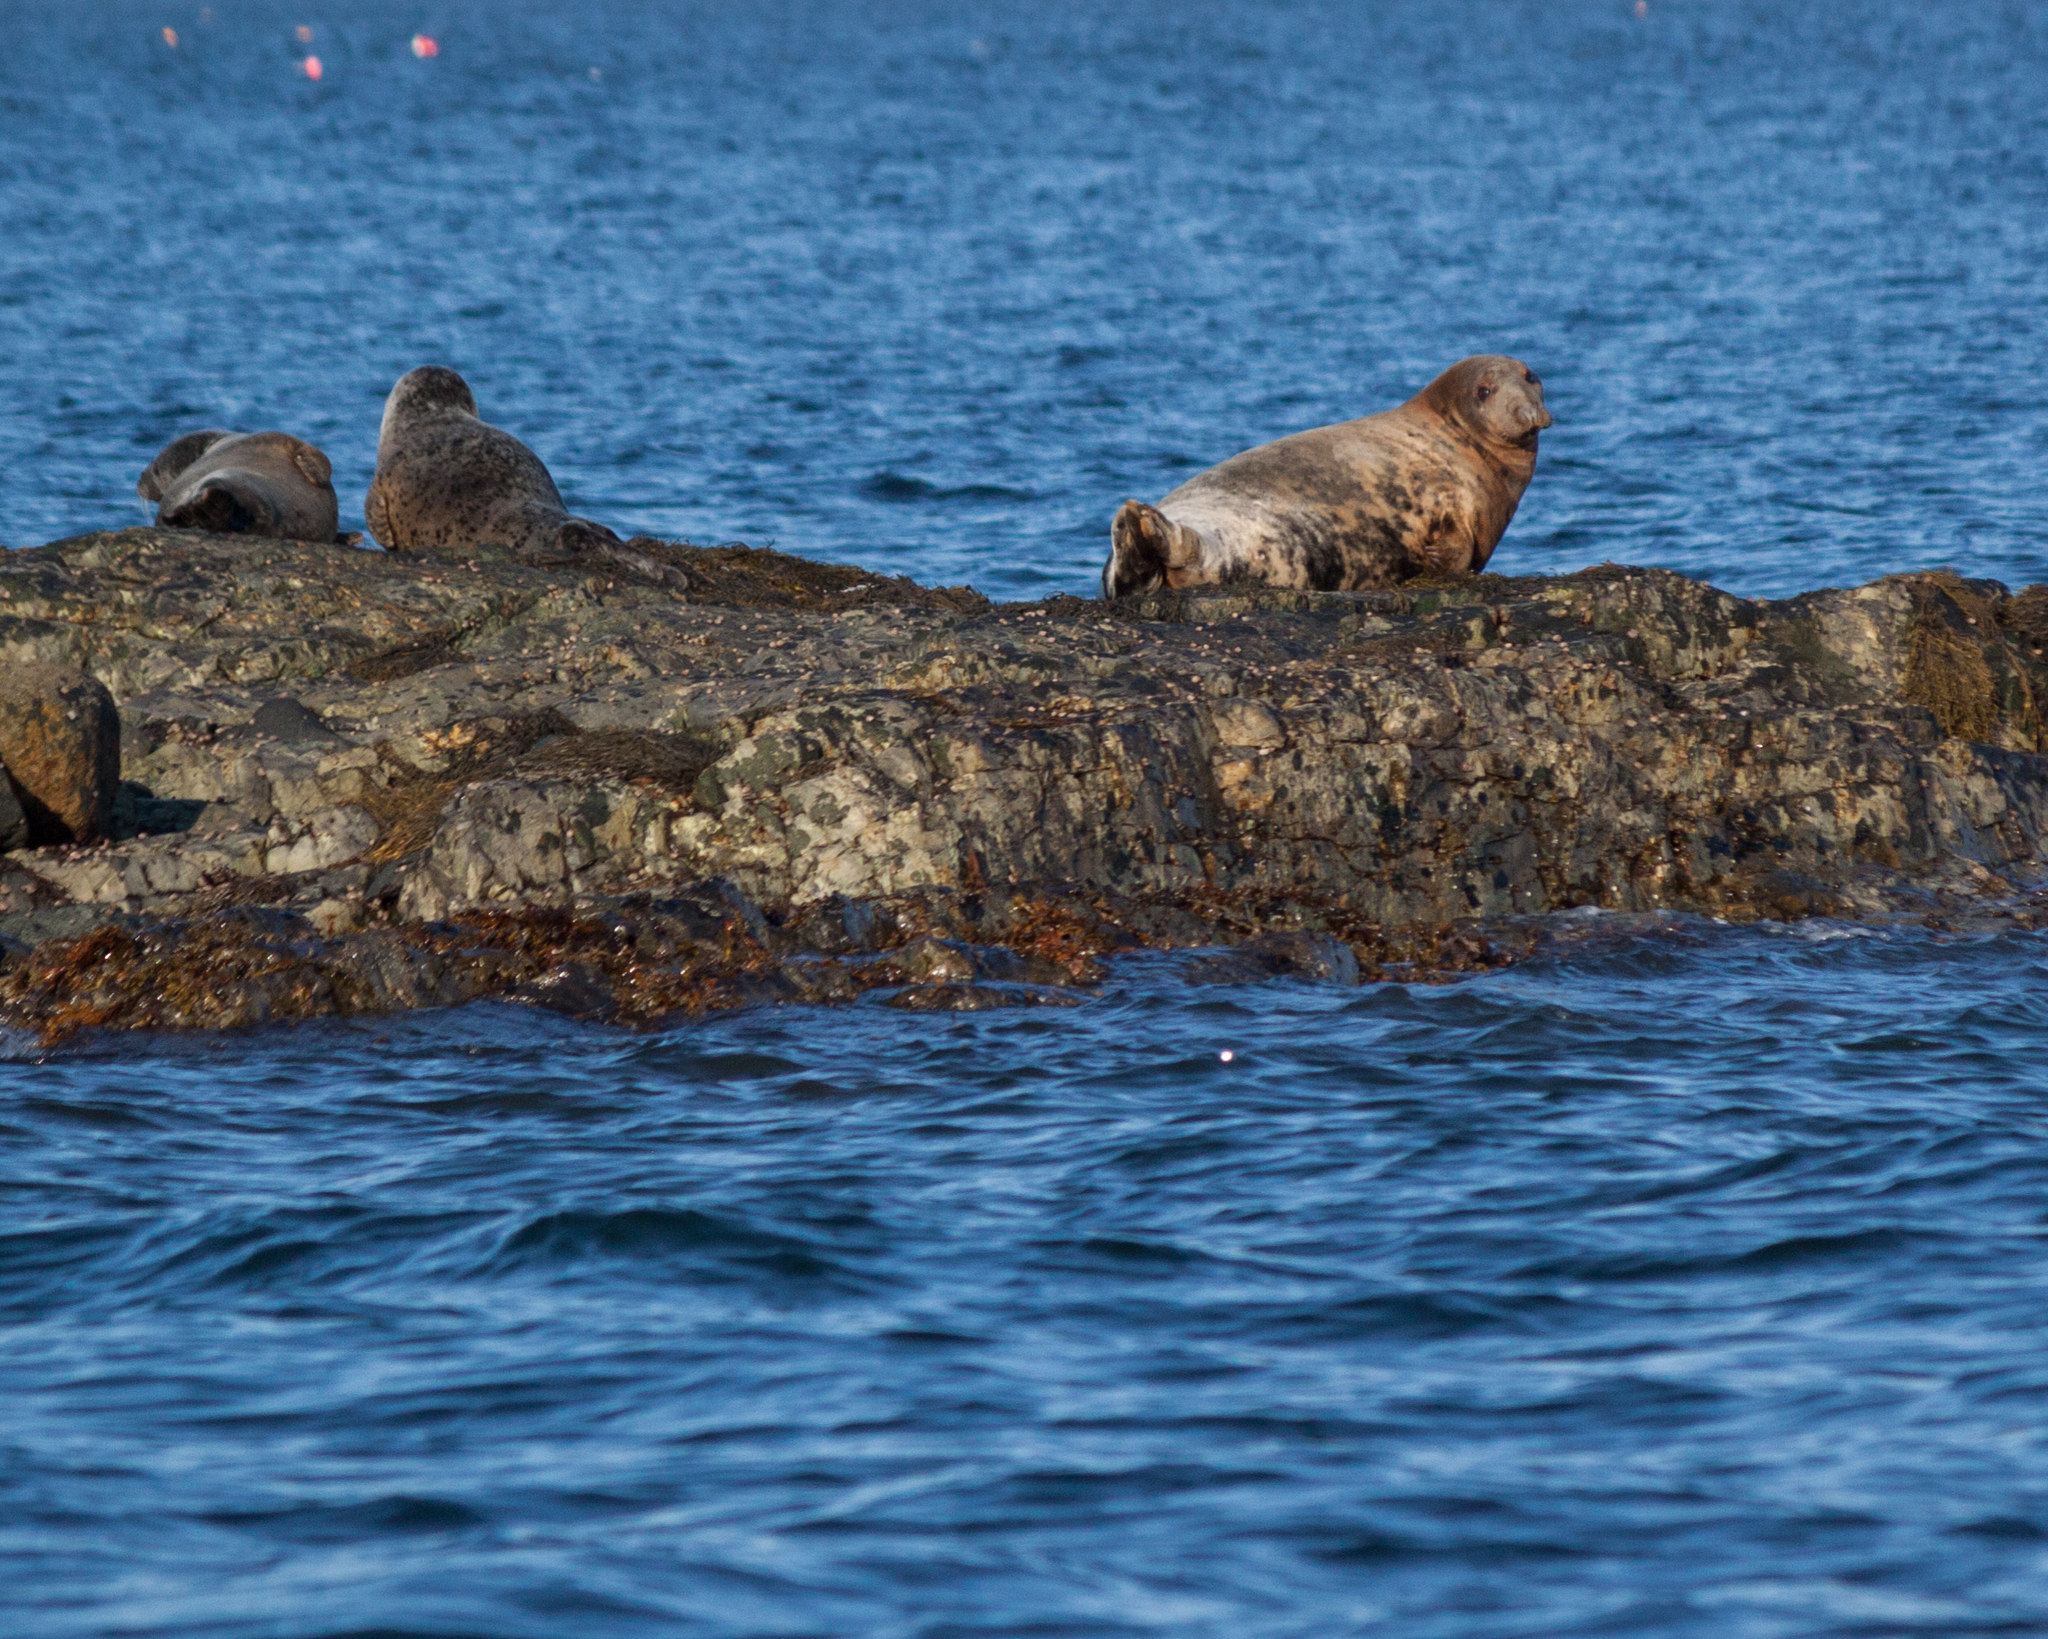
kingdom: Animalia
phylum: Chordata
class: Mammalia
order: Carnivora
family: Phocidae
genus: Halichoerus
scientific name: Halichoerus grypus
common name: Grey seal
